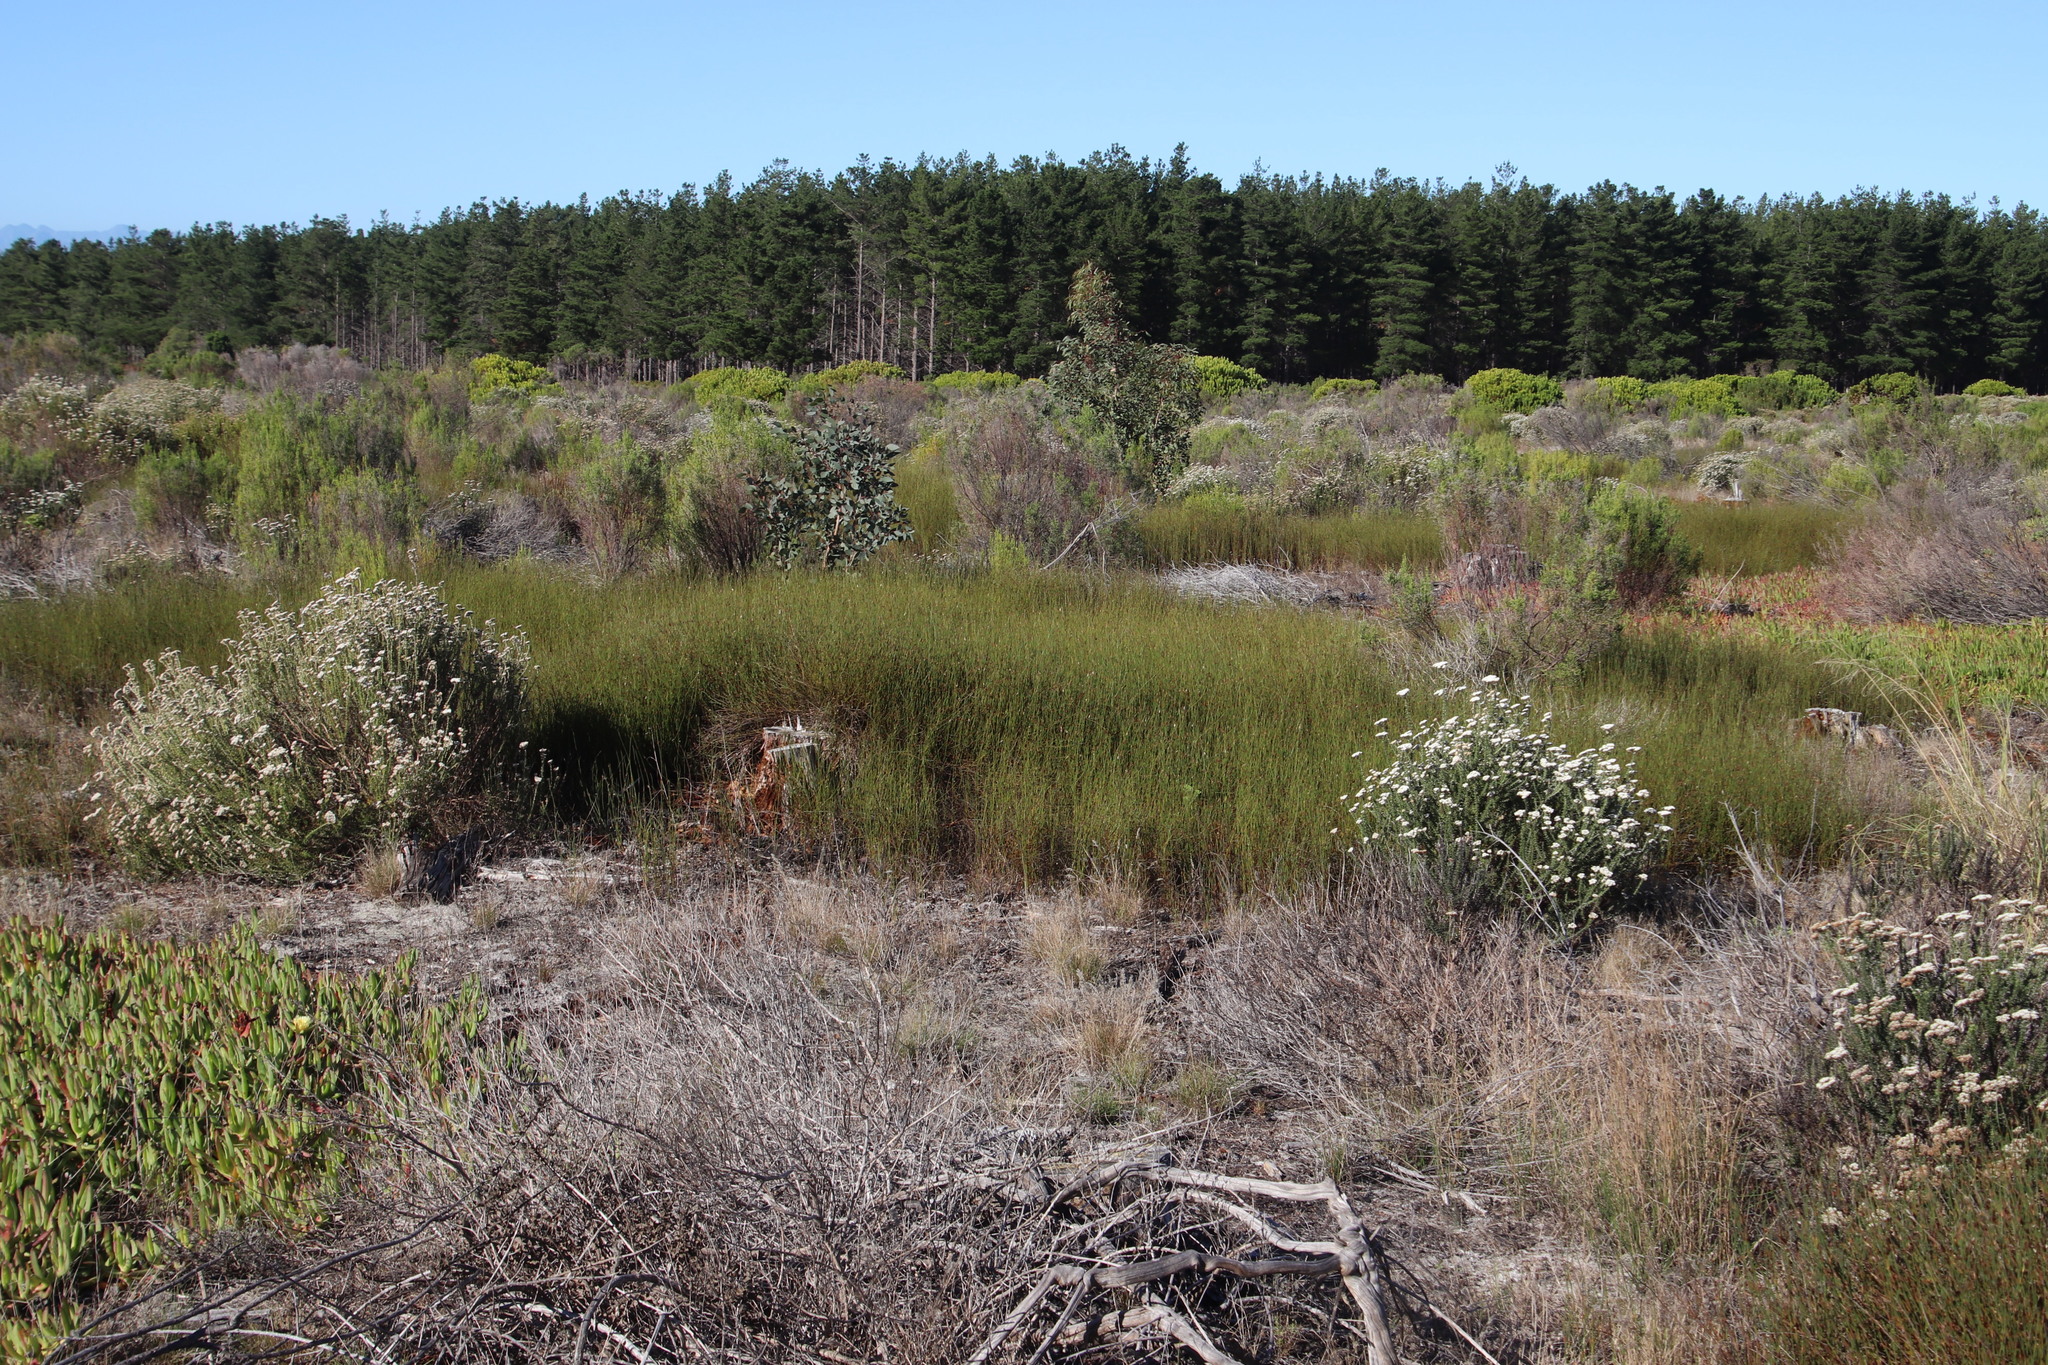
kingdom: Plantae
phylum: Tracheophyta
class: Liliopsida
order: Poales
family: Restionaceae
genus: Willdenowia
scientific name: Willdenowia sulcata
